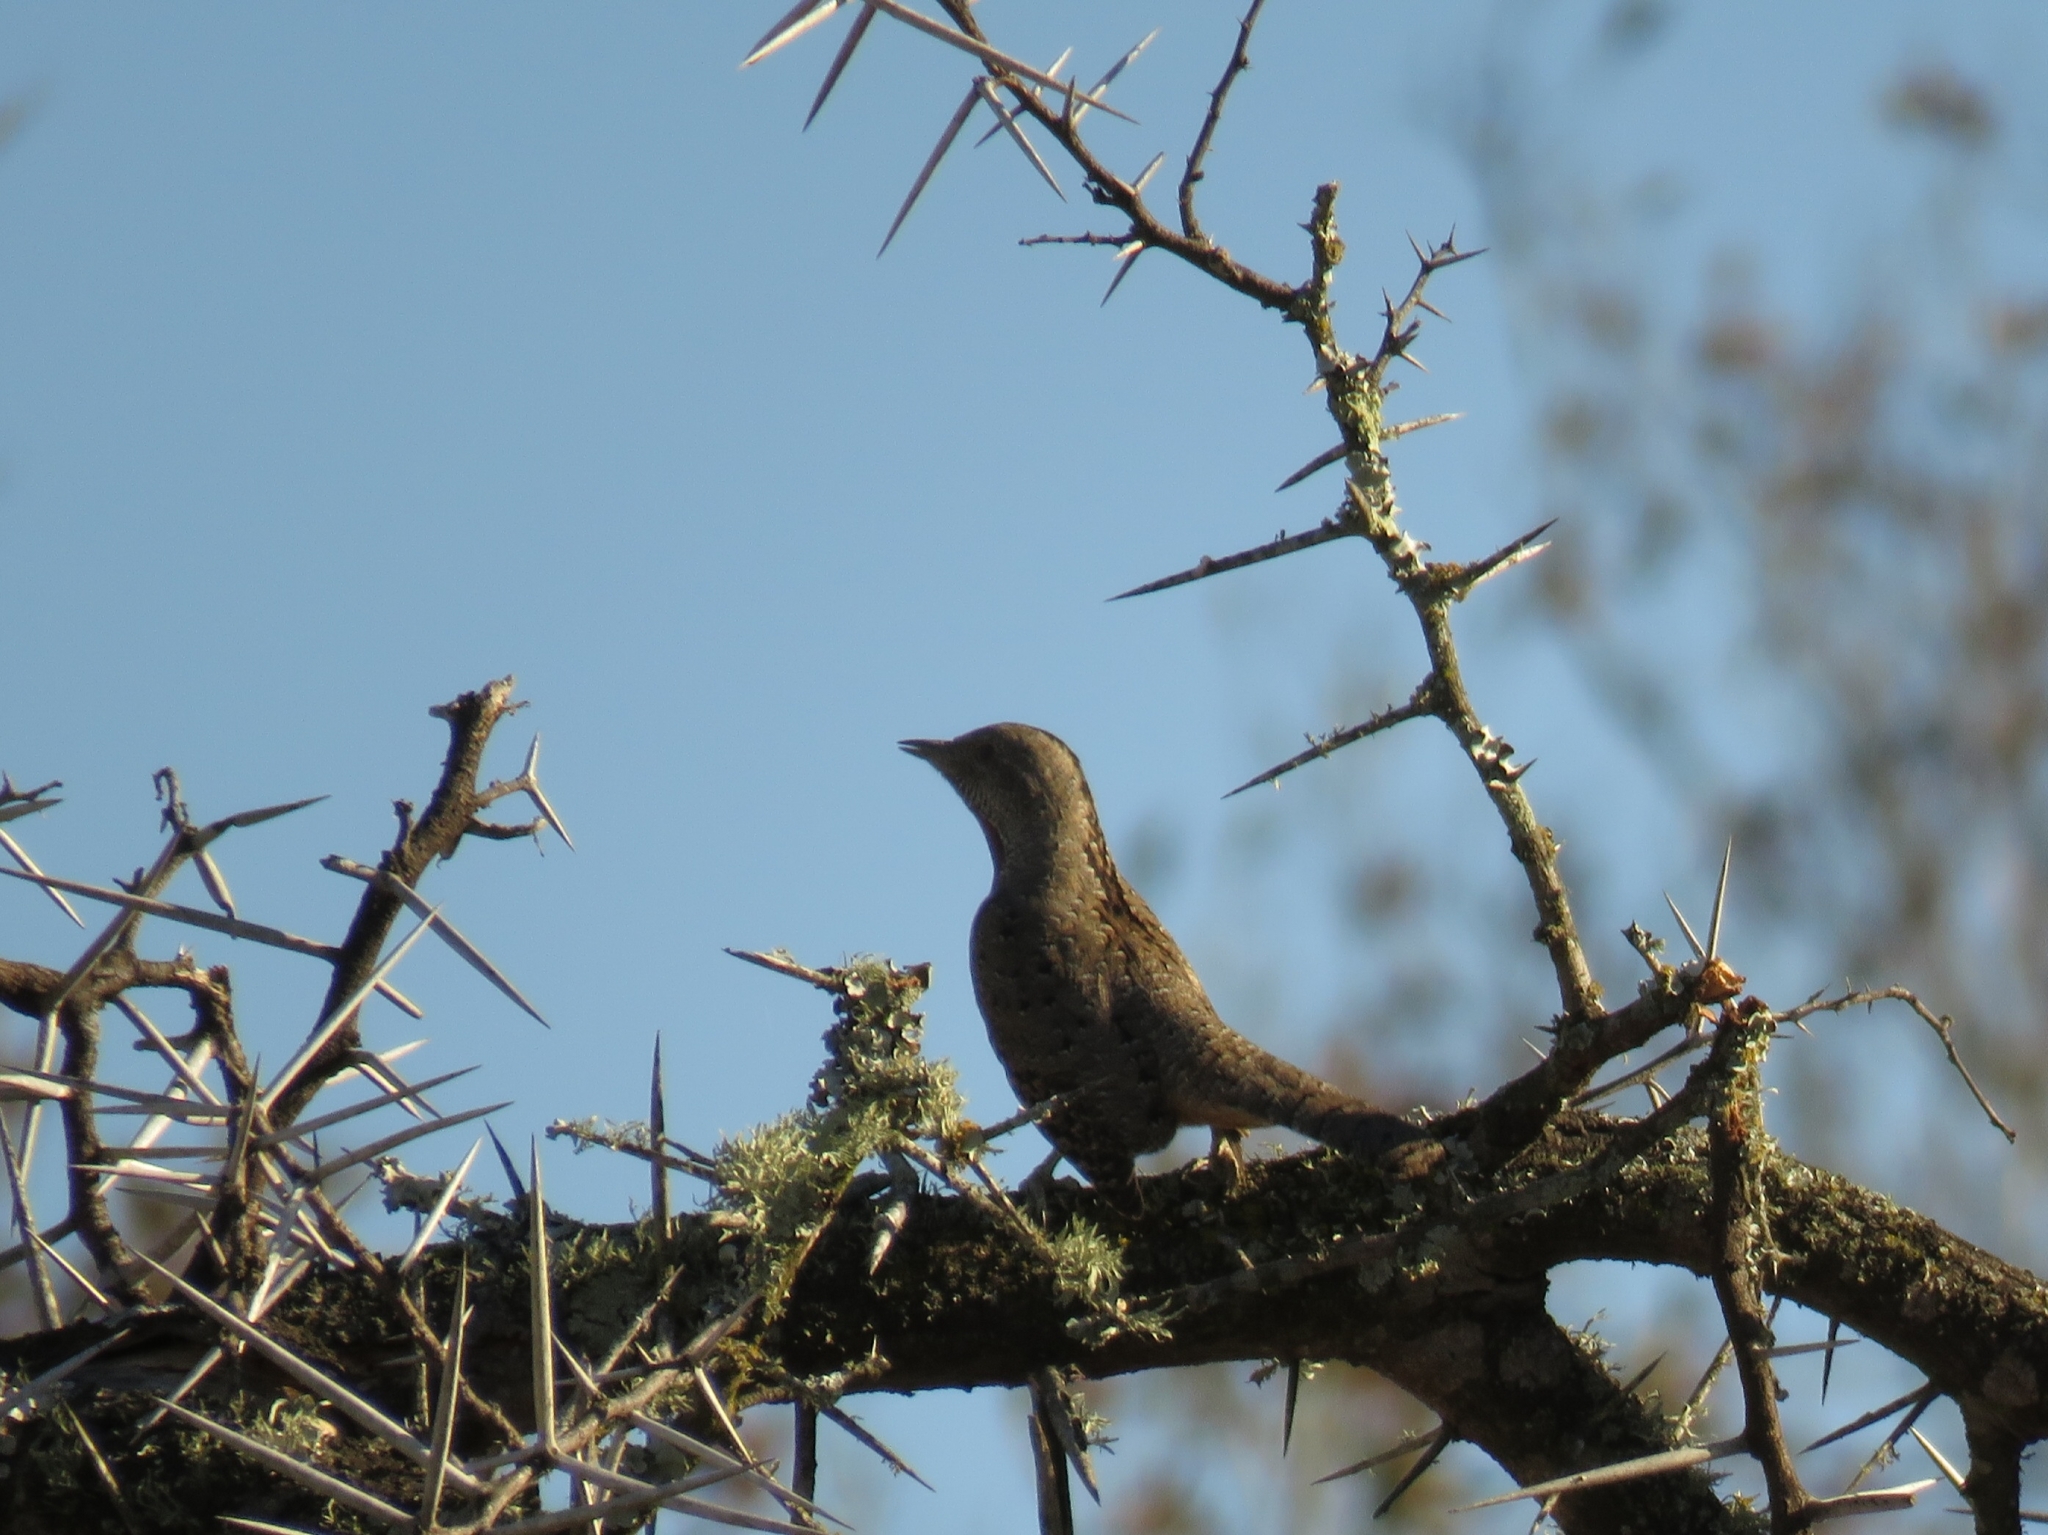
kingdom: Animalia
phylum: Chordata
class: Aves
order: Piciformes
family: Picidae
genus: Jynx
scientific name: Jynx ruficollis
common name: Red-throated wryneck
